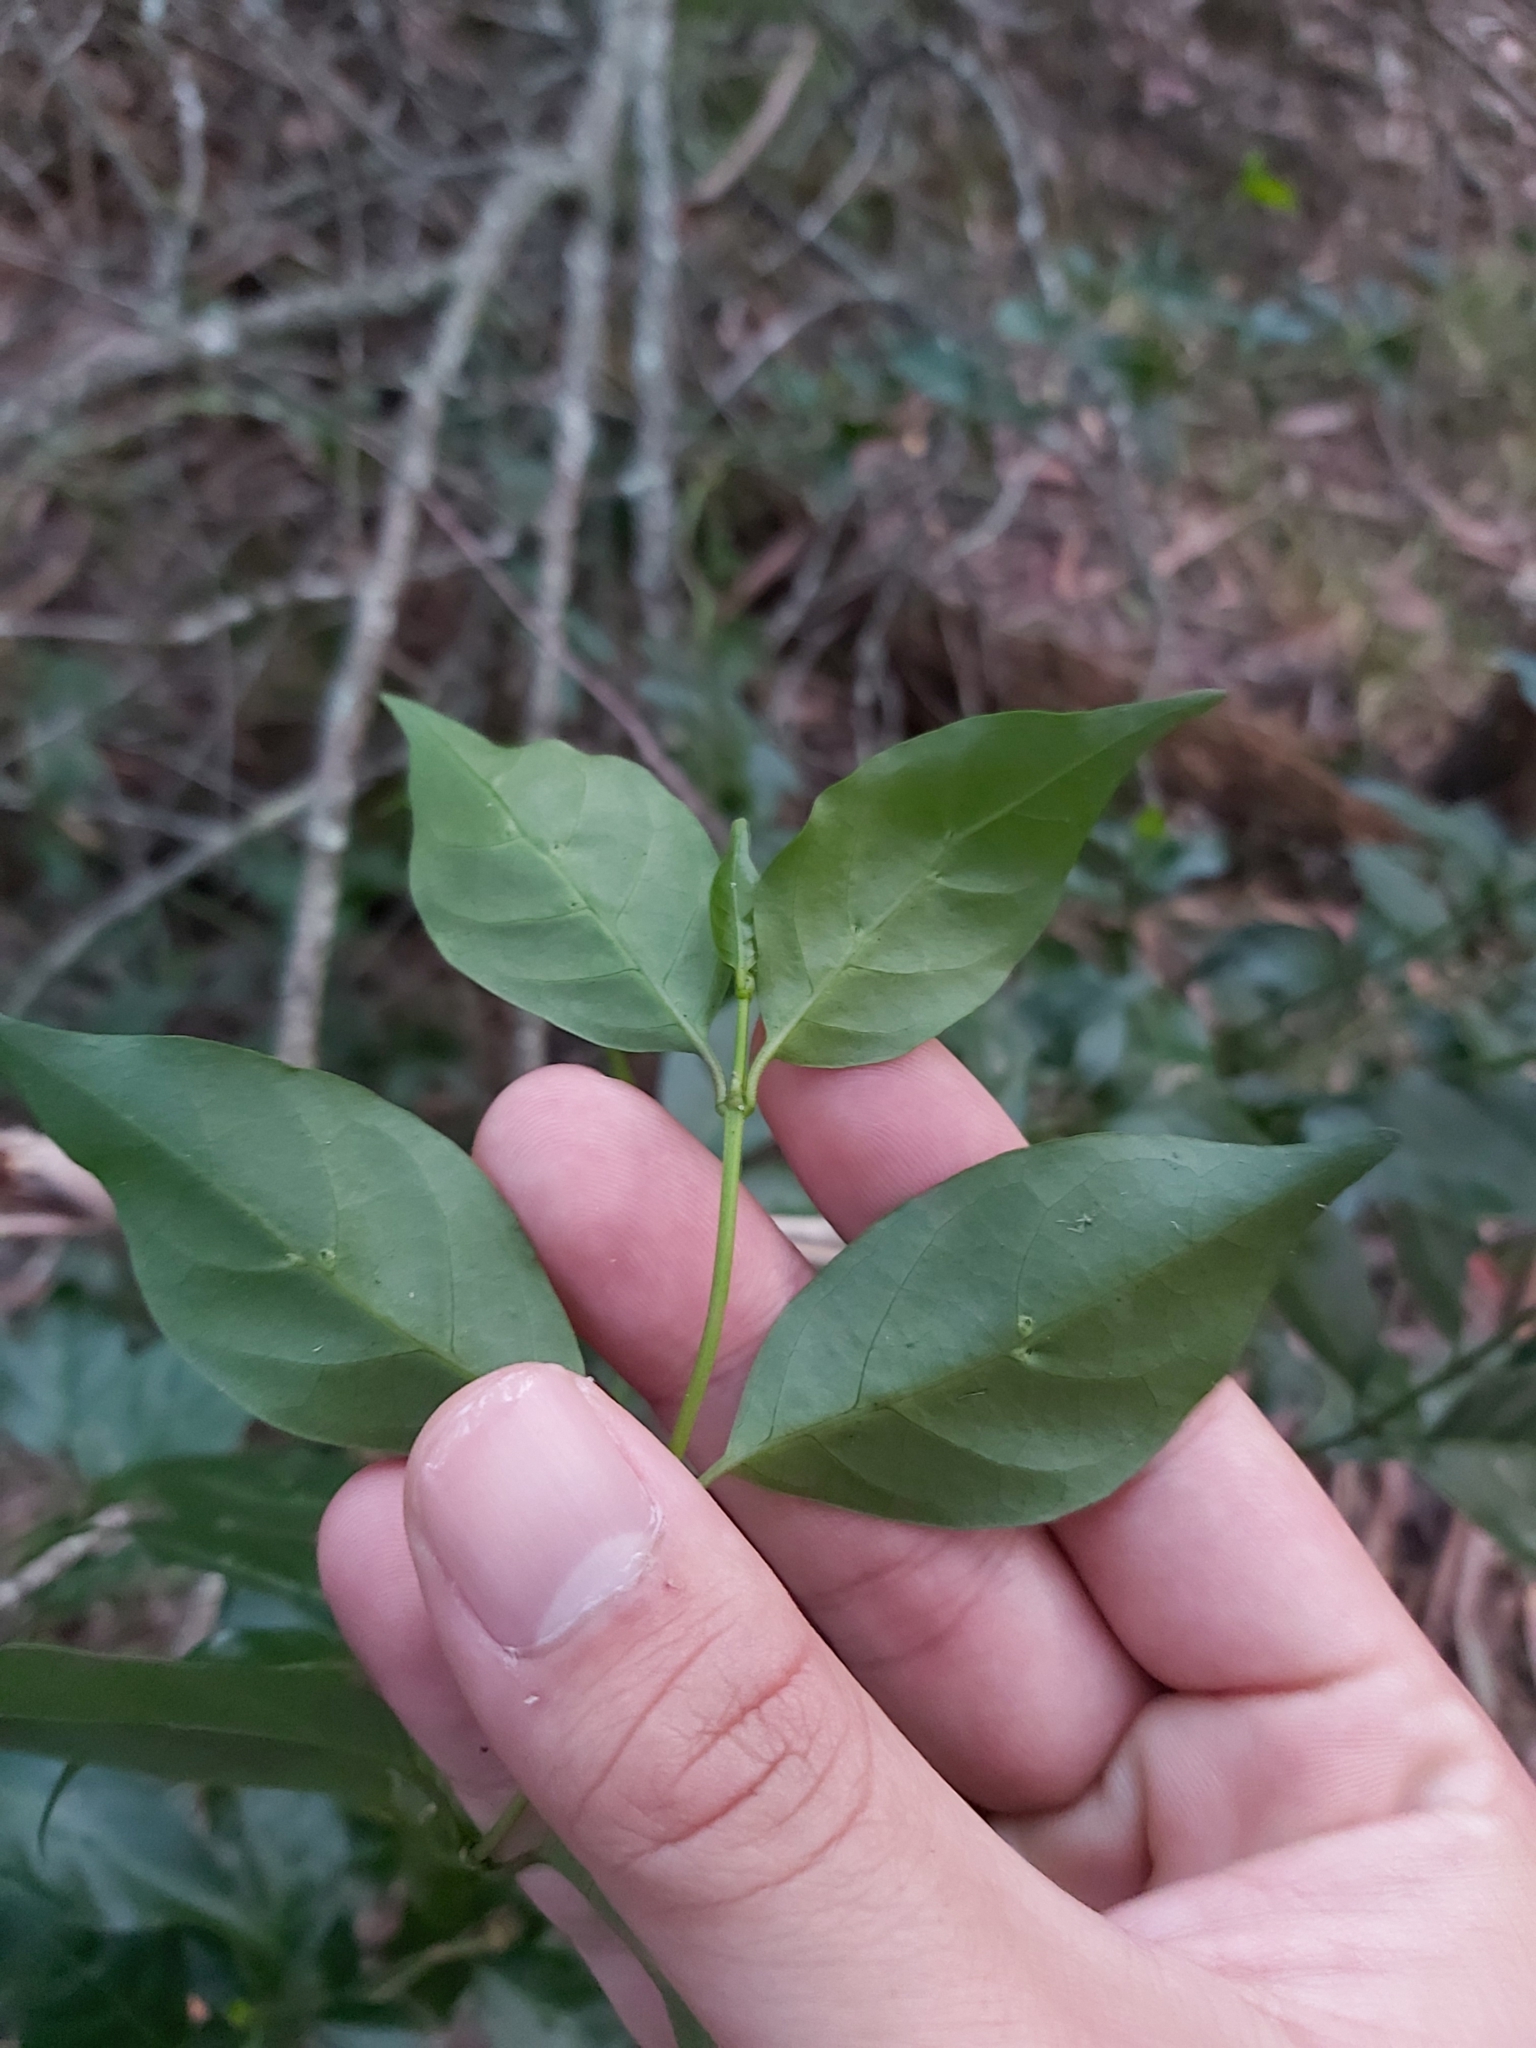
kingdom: Plantae
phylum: Tracheophyta
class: Magnoliopsida
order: Gentianales
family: Rubiaceae
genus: Gynochthodes
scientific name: Gynochthodes jasminoides
